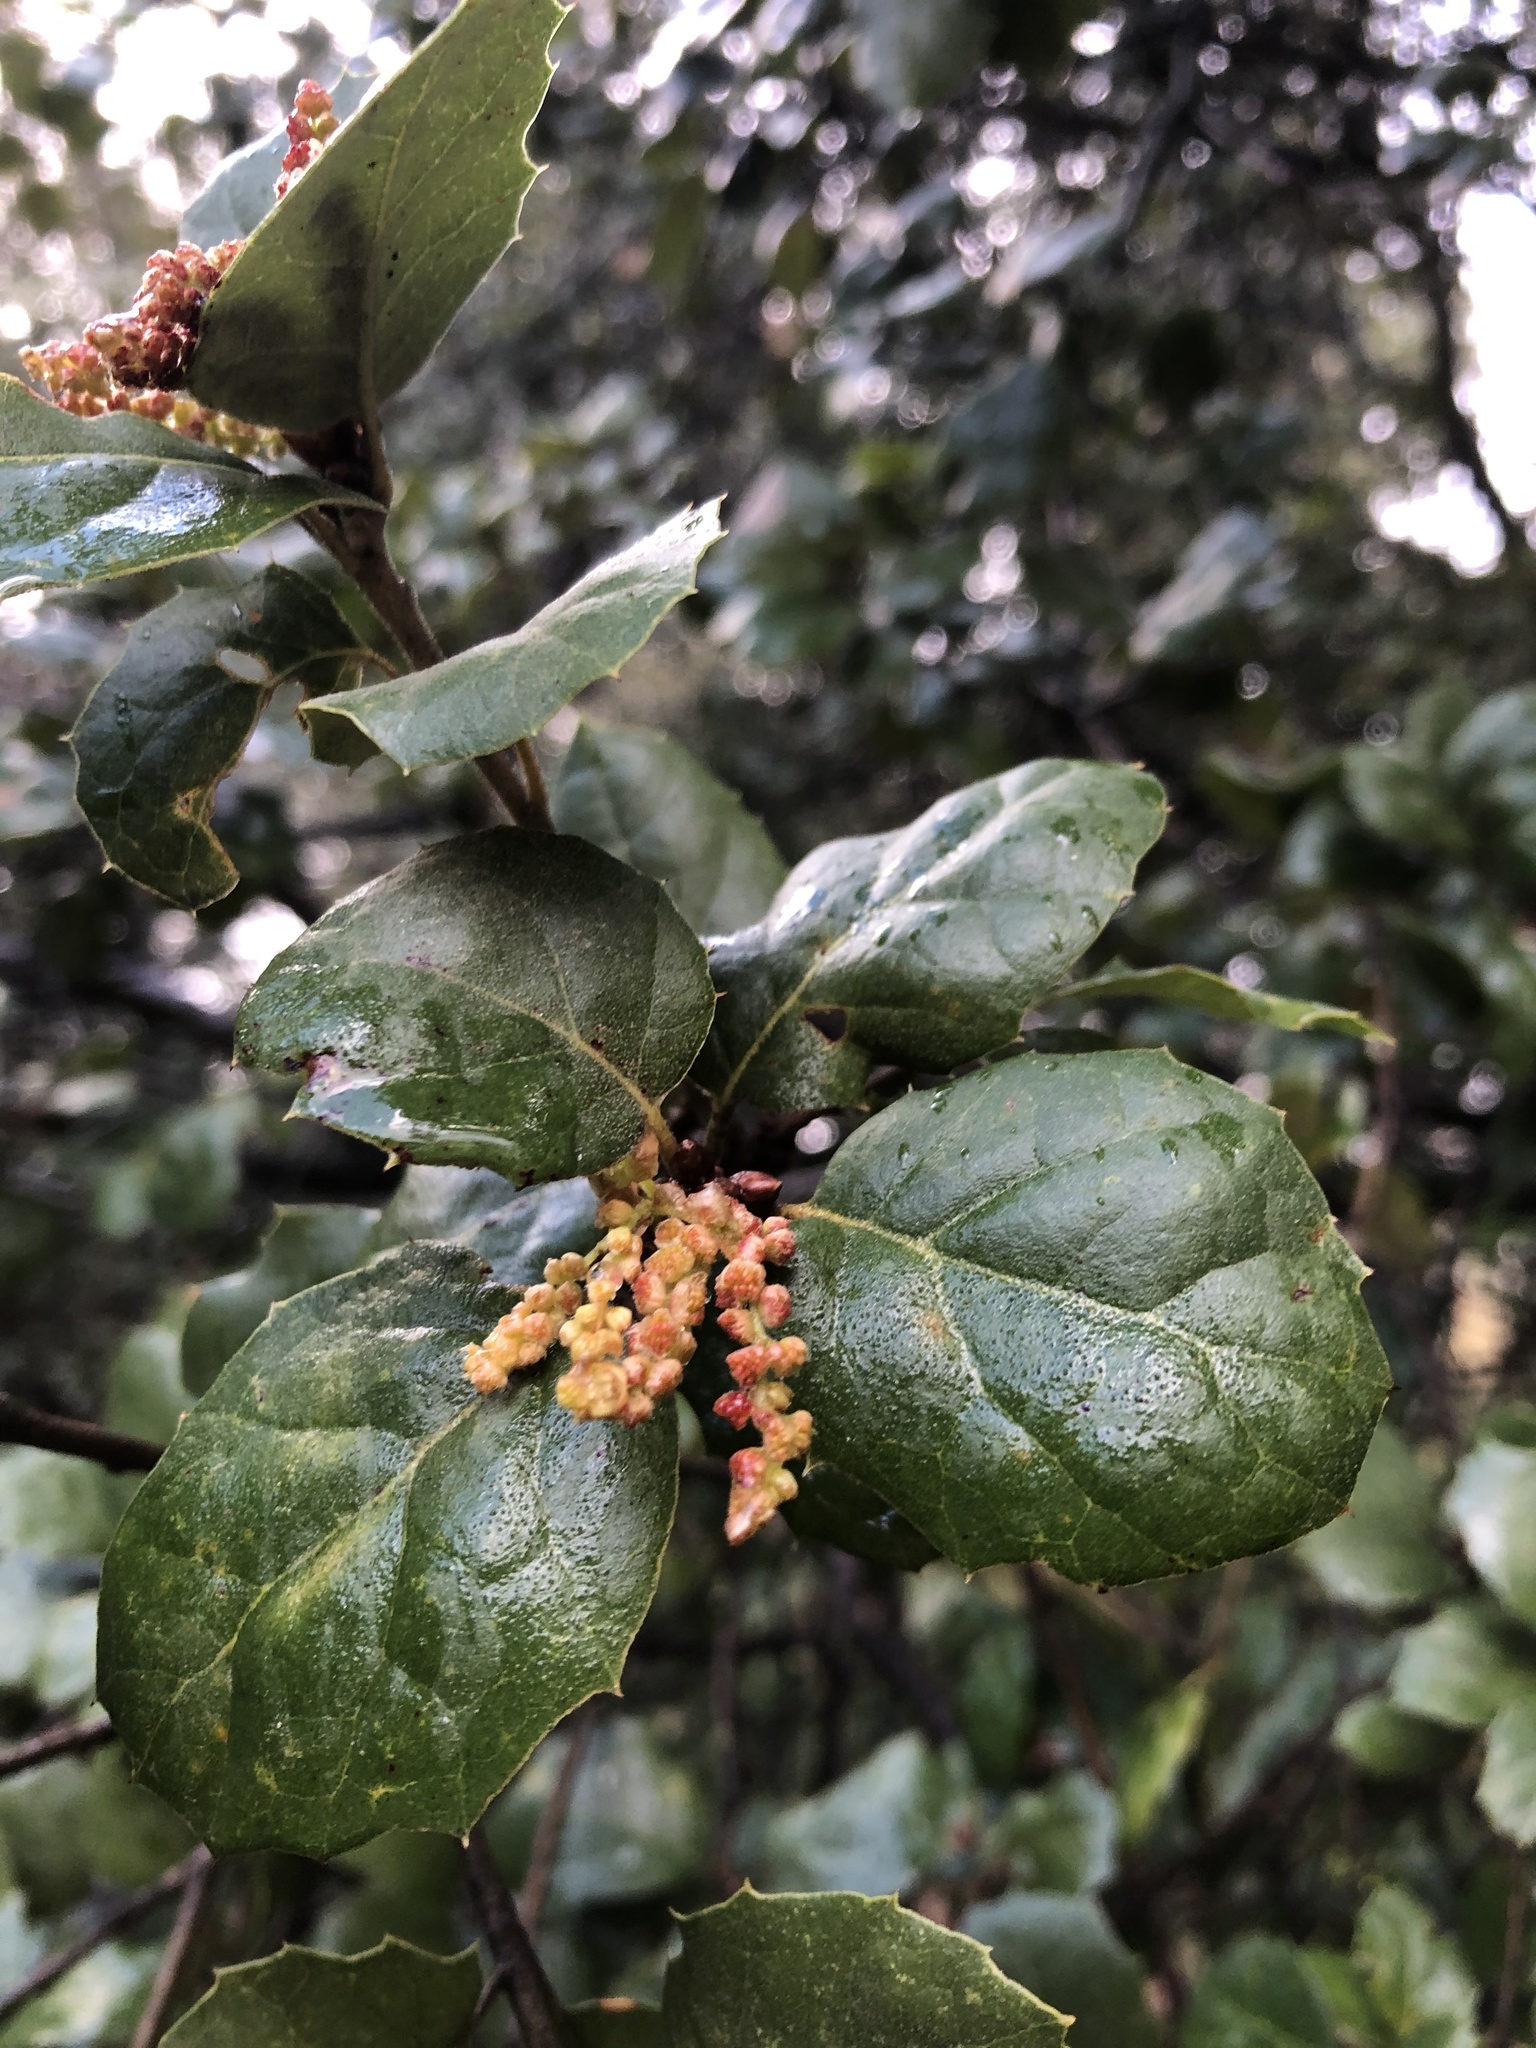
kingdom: Plantae
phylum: Tracheophyta
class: Magnoliopsida
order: Fagales
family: Fagaceae
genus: Quercus
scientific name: Quercus agrifolia
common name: California live oak
